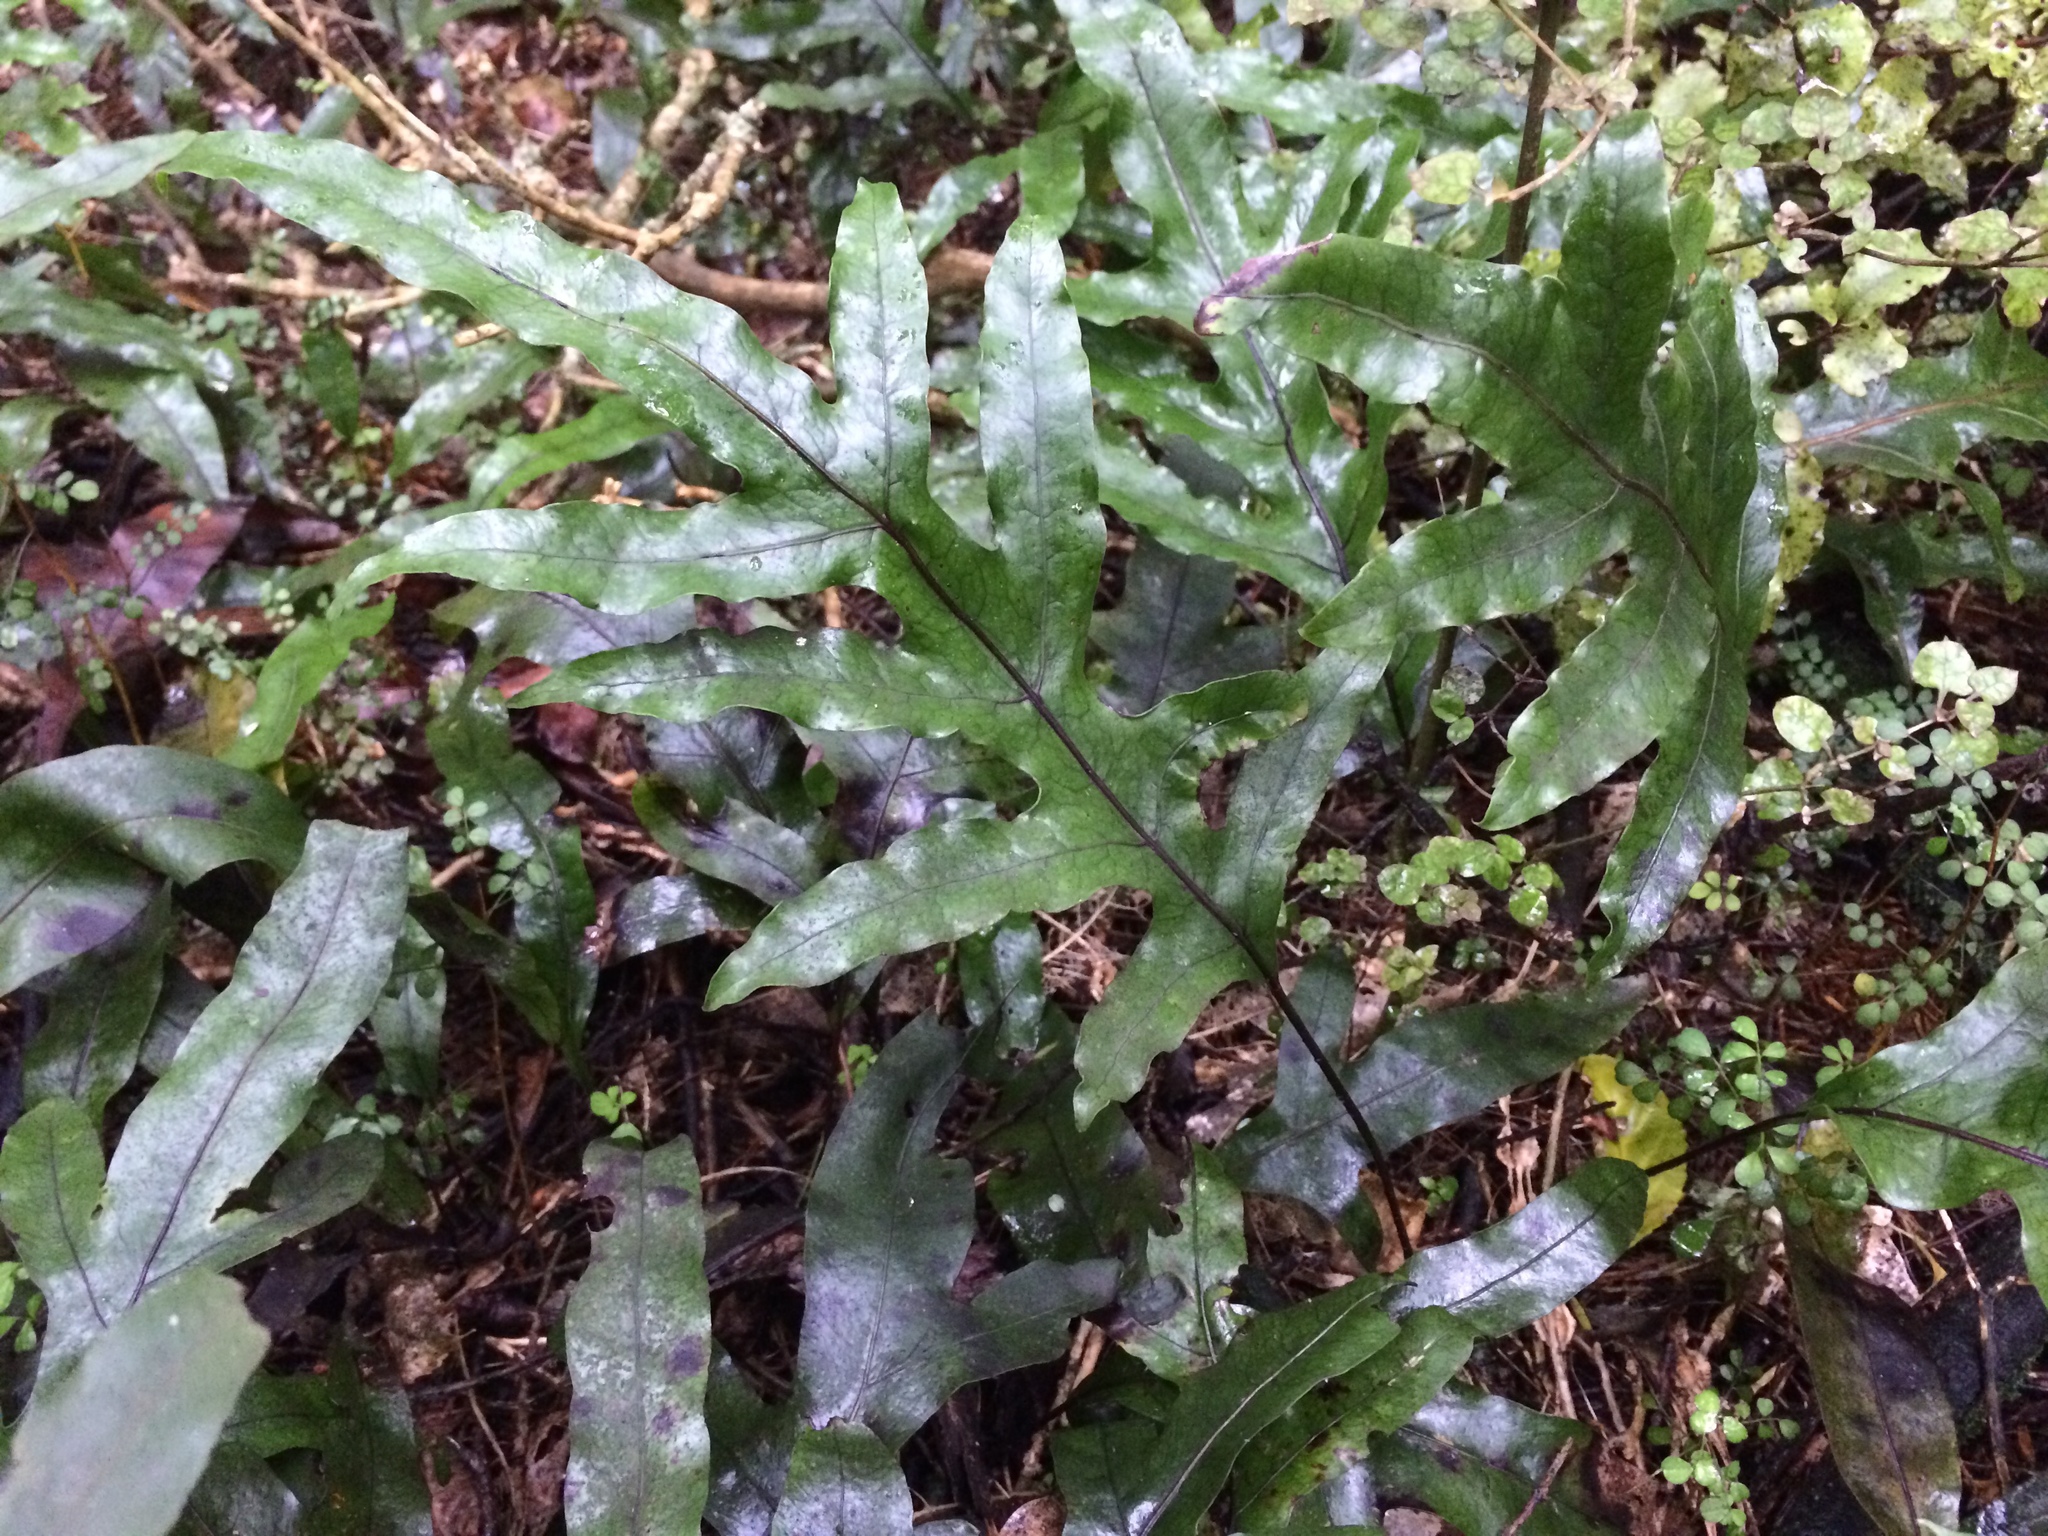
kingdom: Plantae
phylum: Tracheophyta
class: Polypodiopsida
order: Polypodiales
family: Polypodiaceae
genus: Lecanopteris
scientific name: Lecanopteris pustulata
